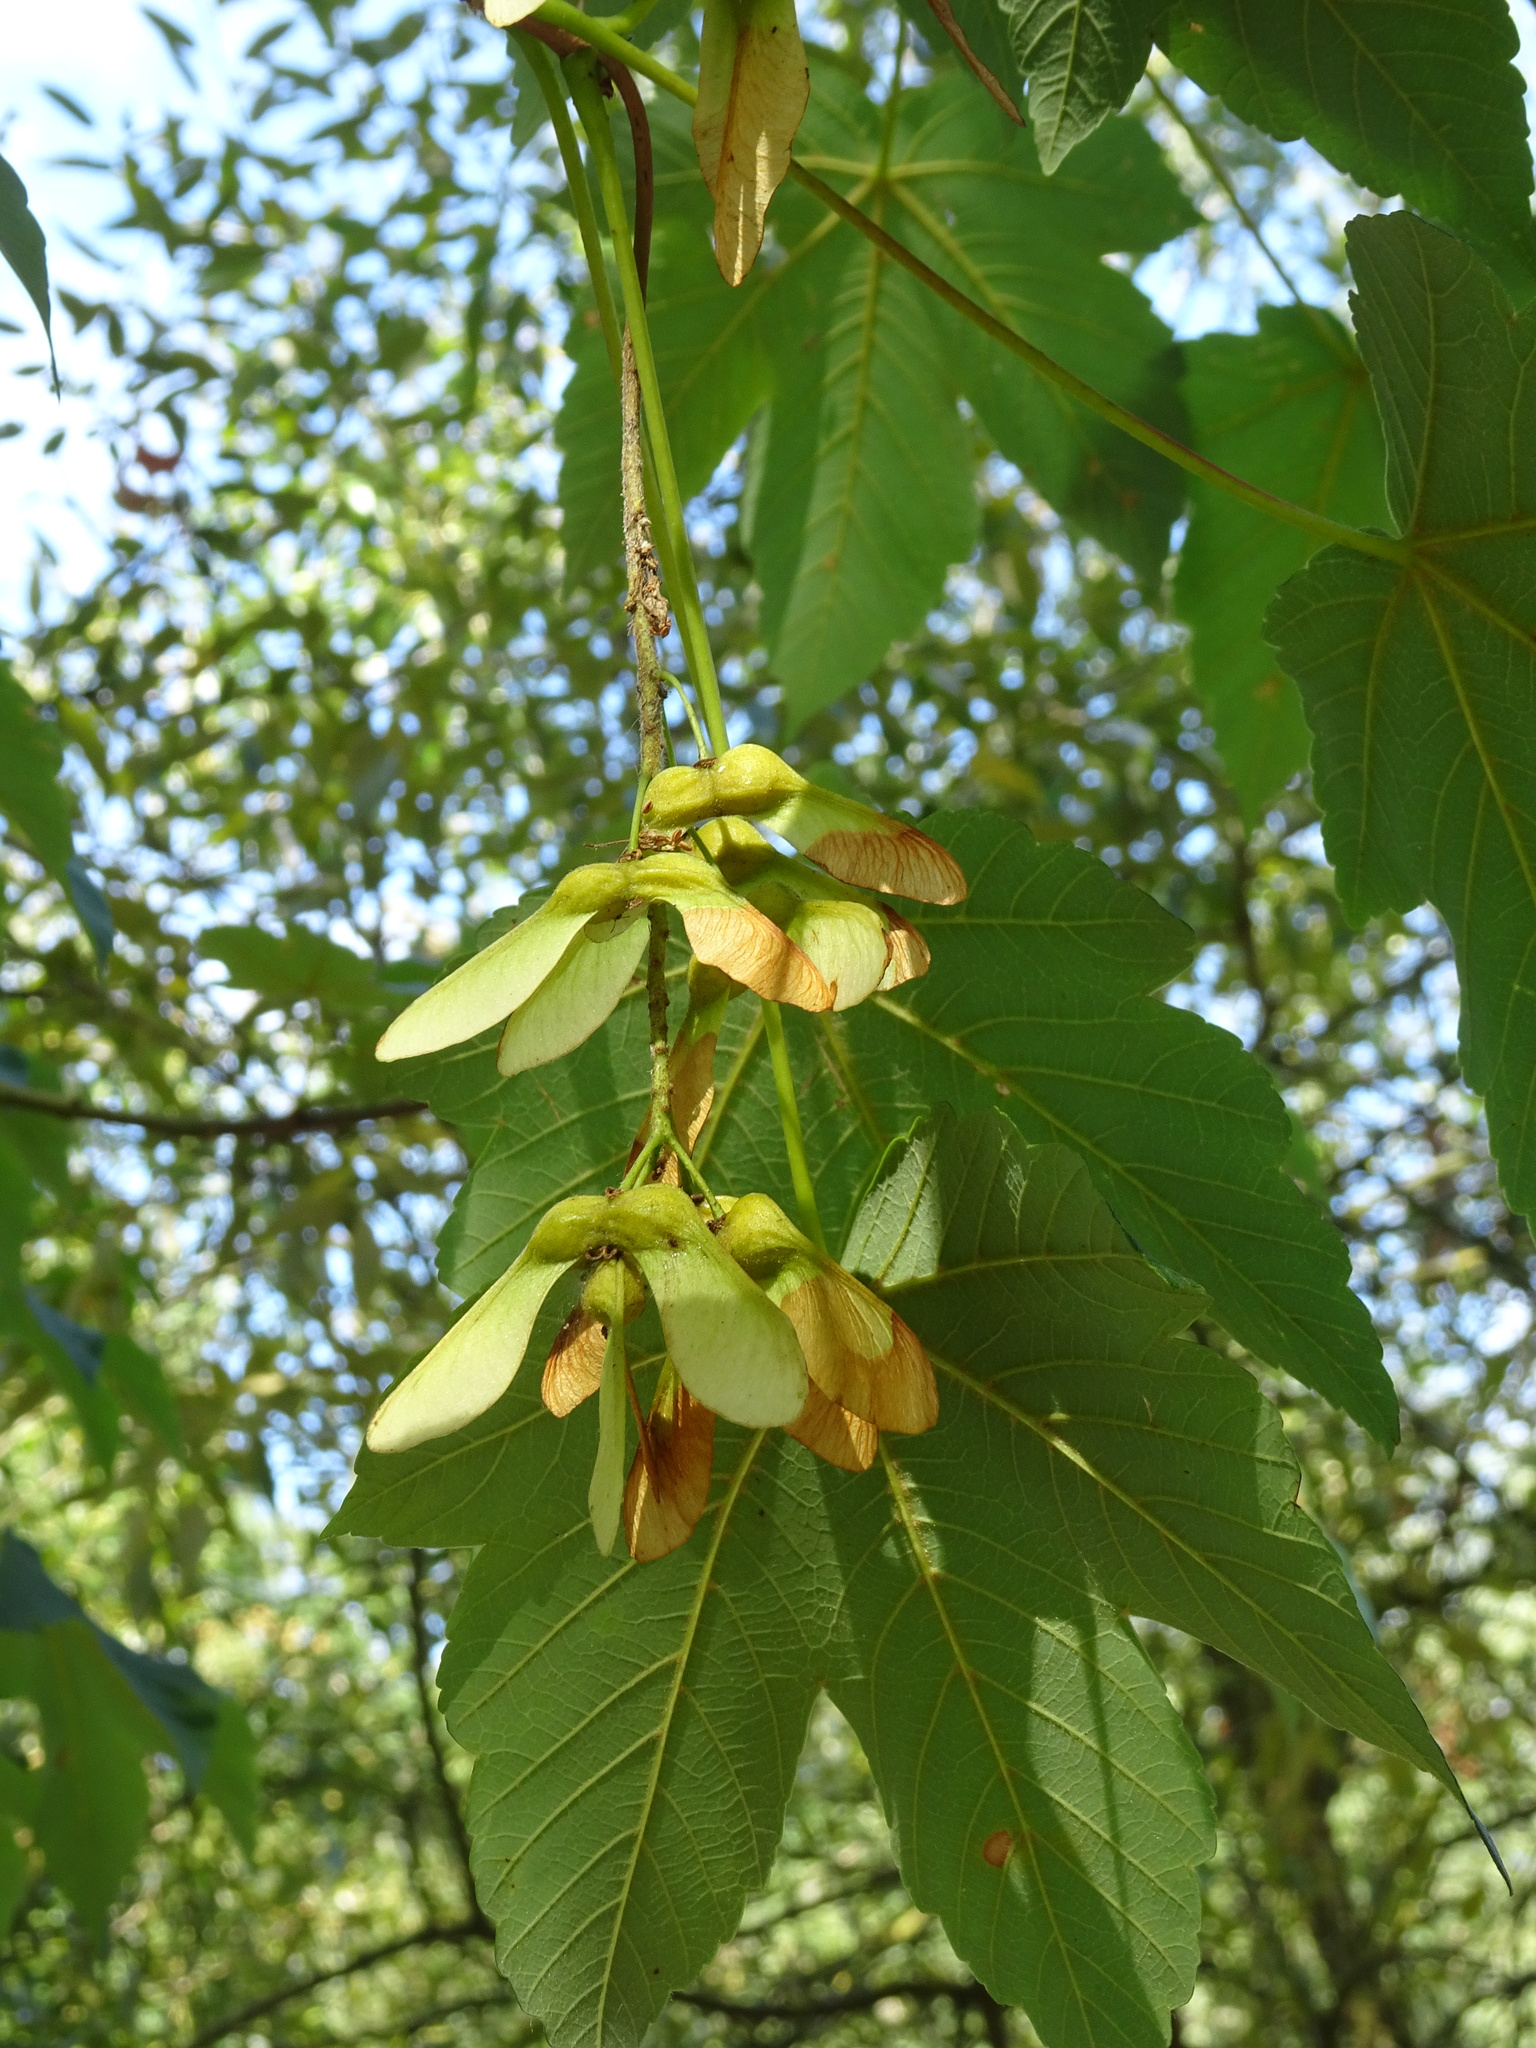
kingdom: Plantae
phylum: Tracheophyta
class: Magnoliopsida
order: Sapindales
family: Sapindaceae
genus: Acer
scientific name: Acer pseudoplatanus
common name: Sycamore
